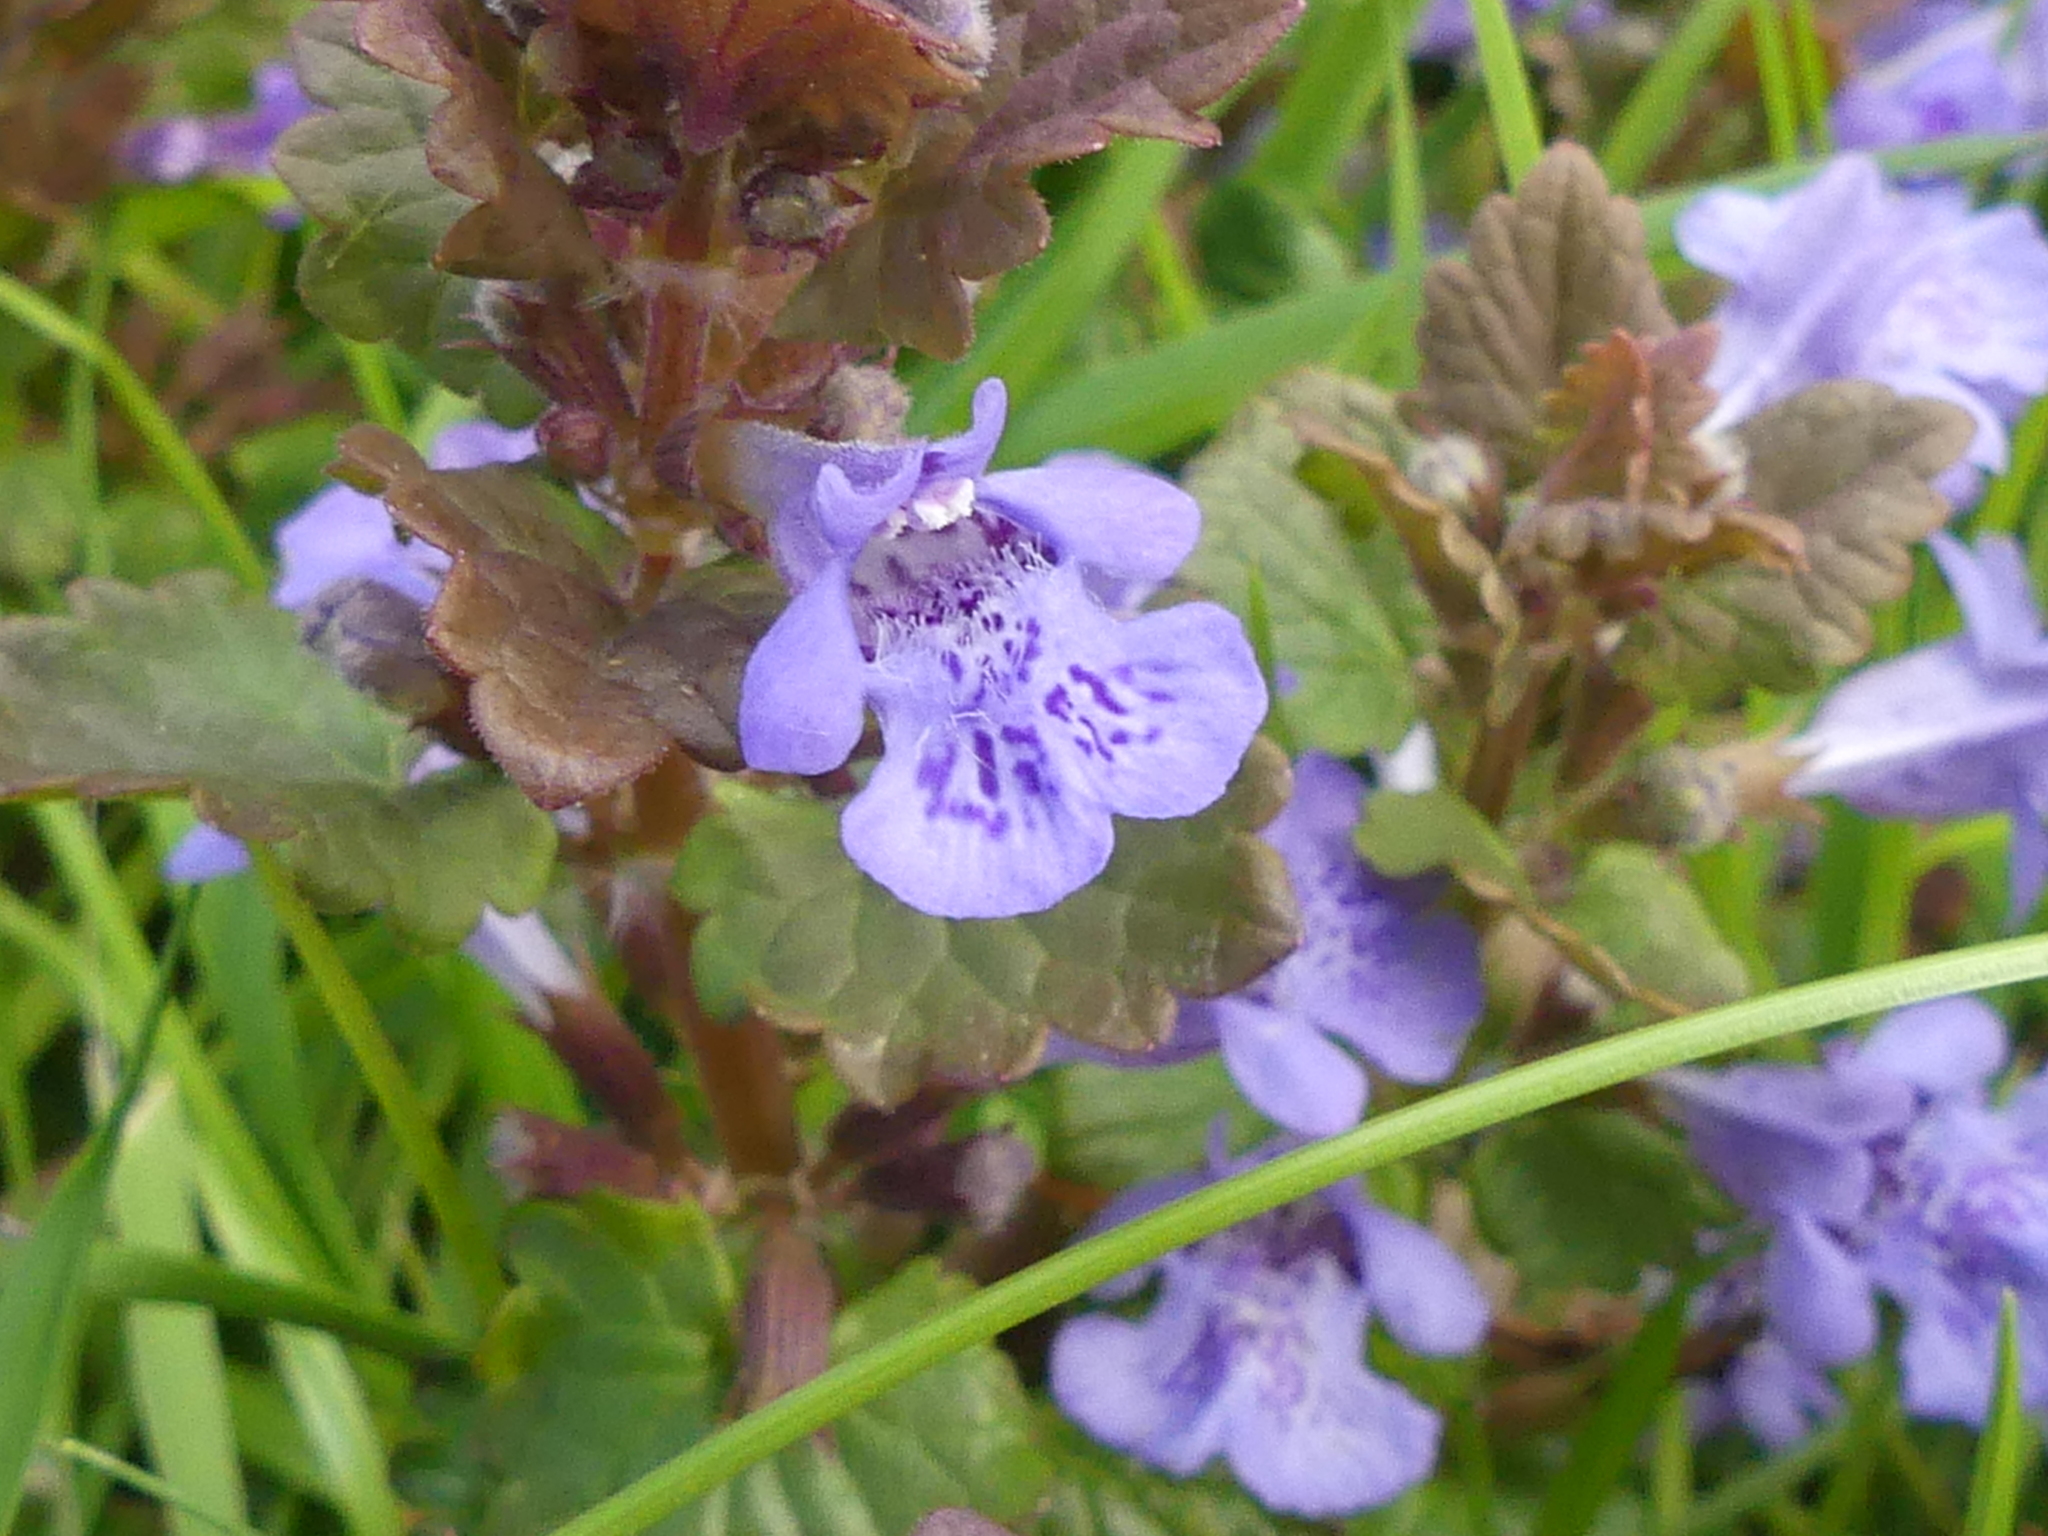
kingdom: Plantae
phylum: Tracheophyta
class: Magnoliopsida
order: Lamiales
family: Lamiaceae
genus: Glechoma
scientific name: Glechoma hederacea
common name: Ground ivy
